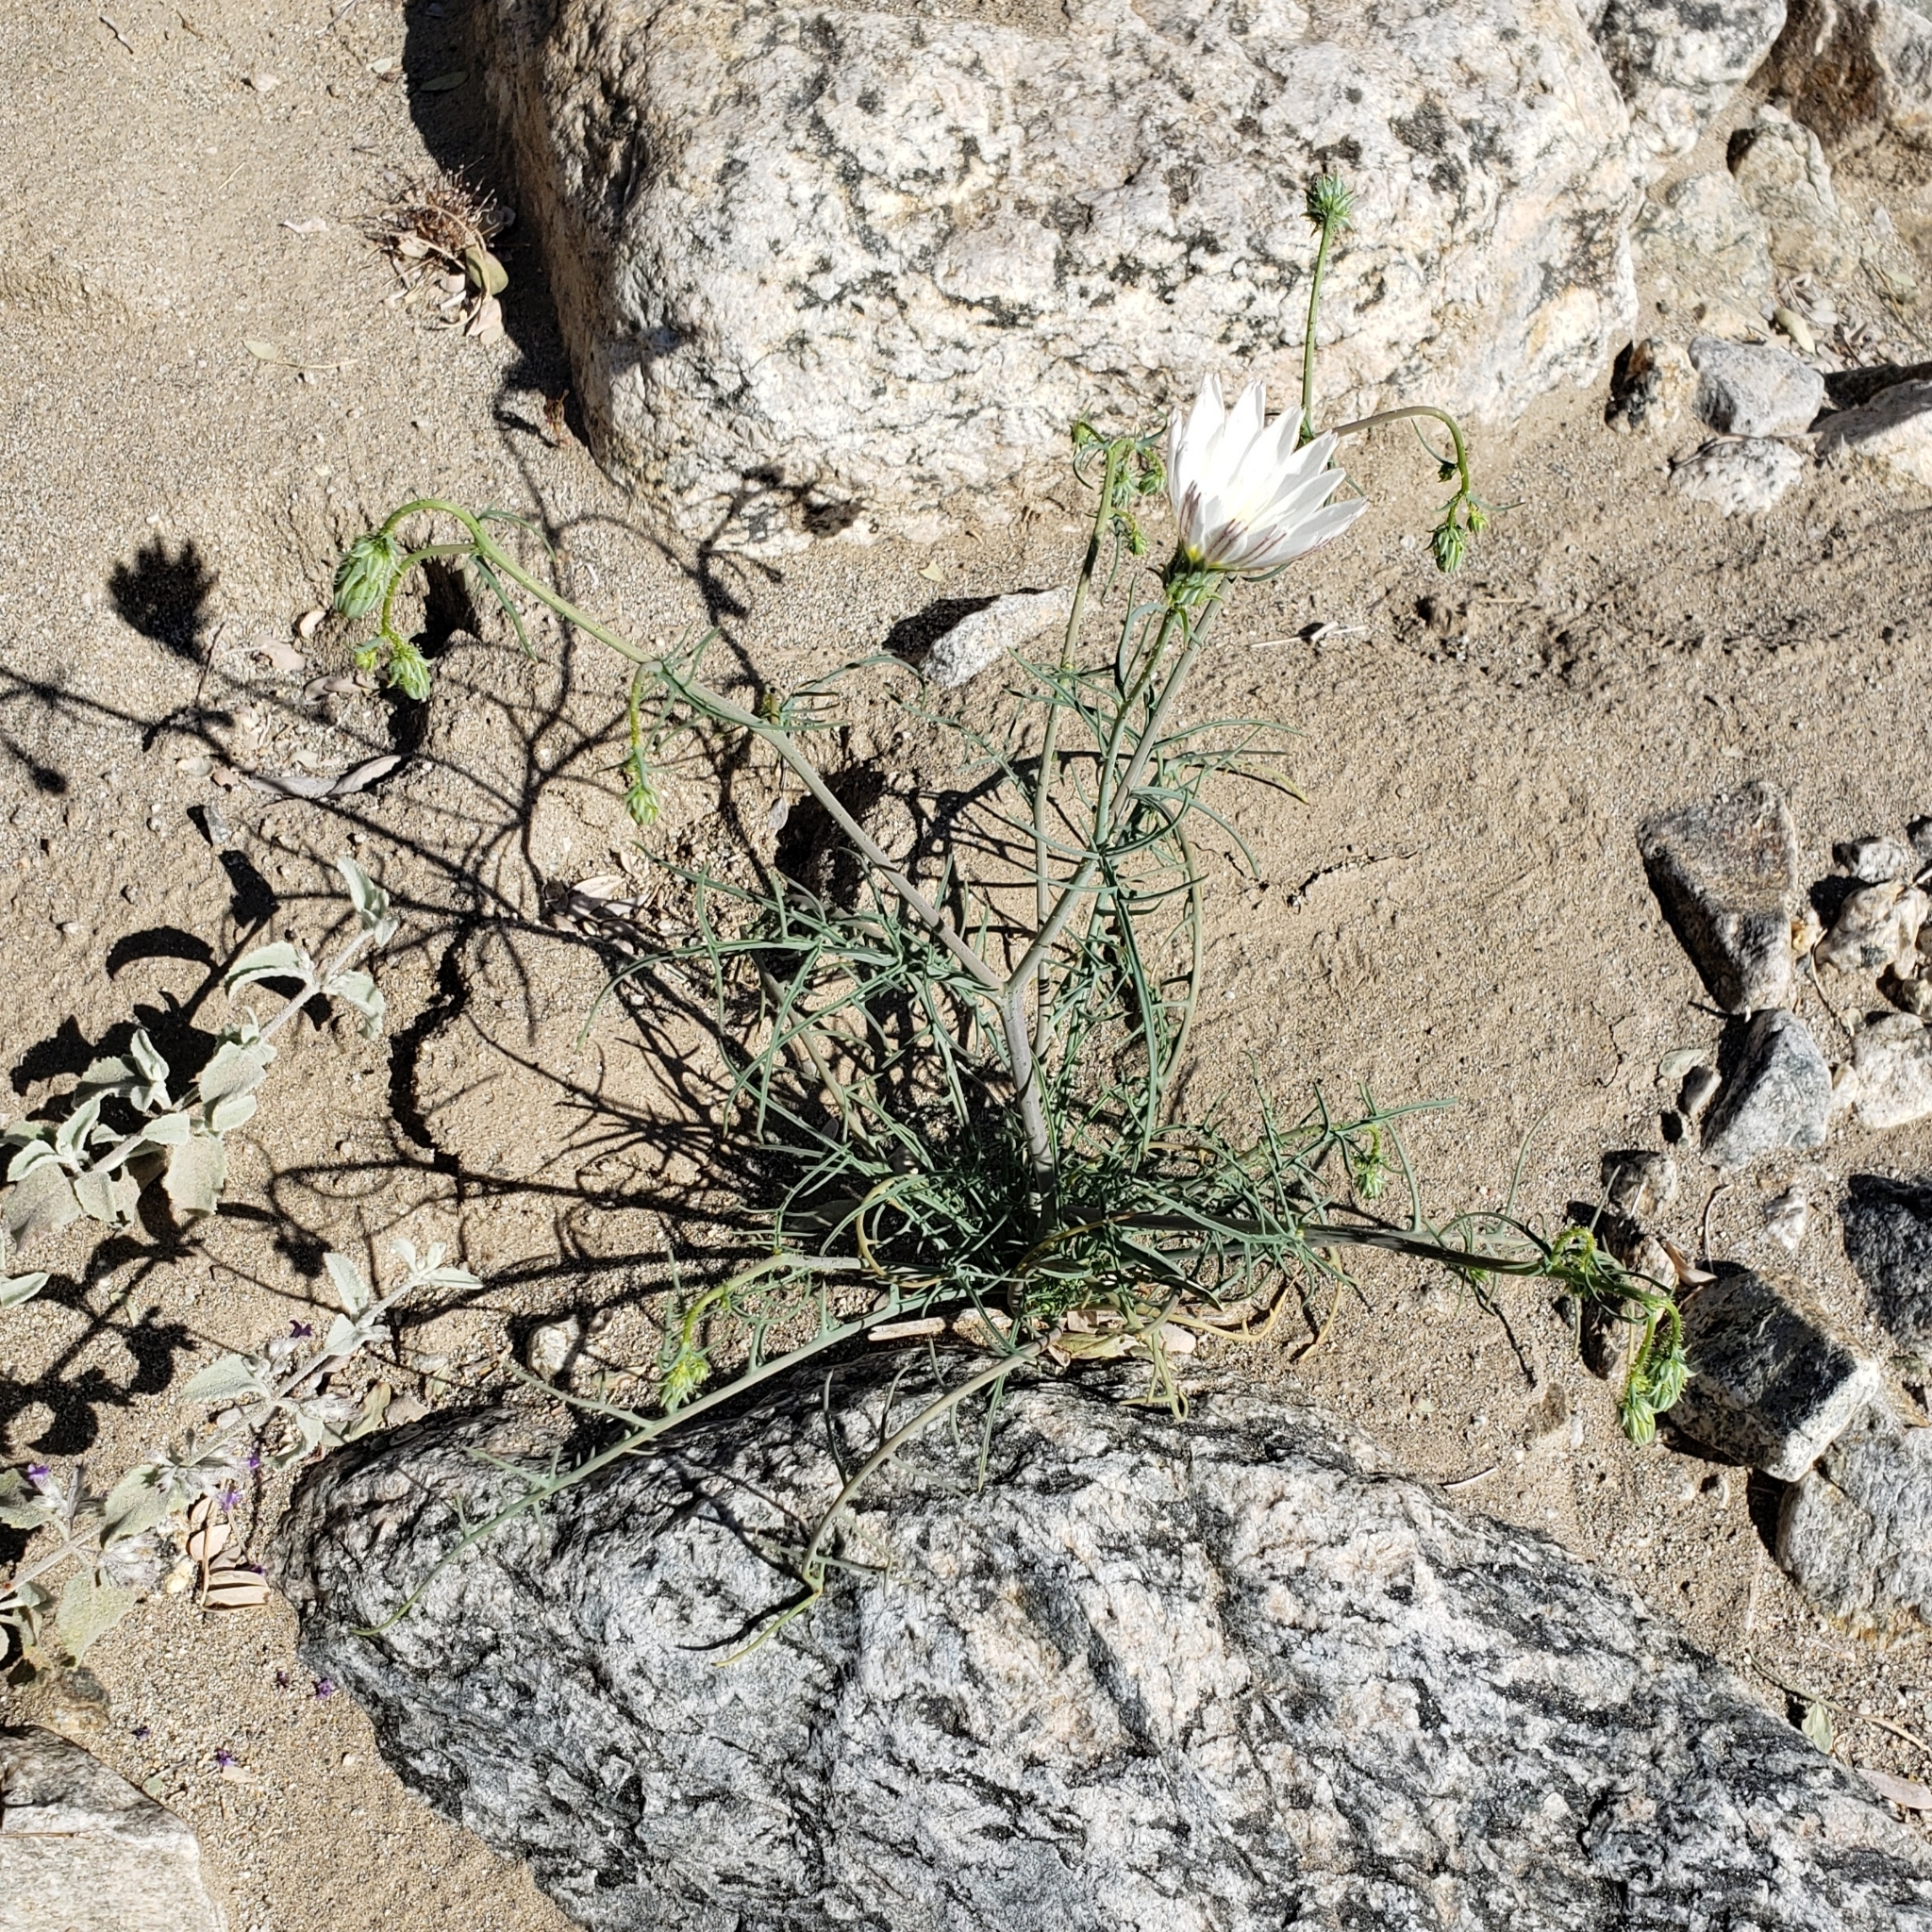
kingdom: Plantae
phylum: Tracheophyta
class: Magnoliopsida
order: Asterales
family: Asteraceae
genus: Calycoseris
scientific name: Calycoseris wrightii
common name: White tackstem
